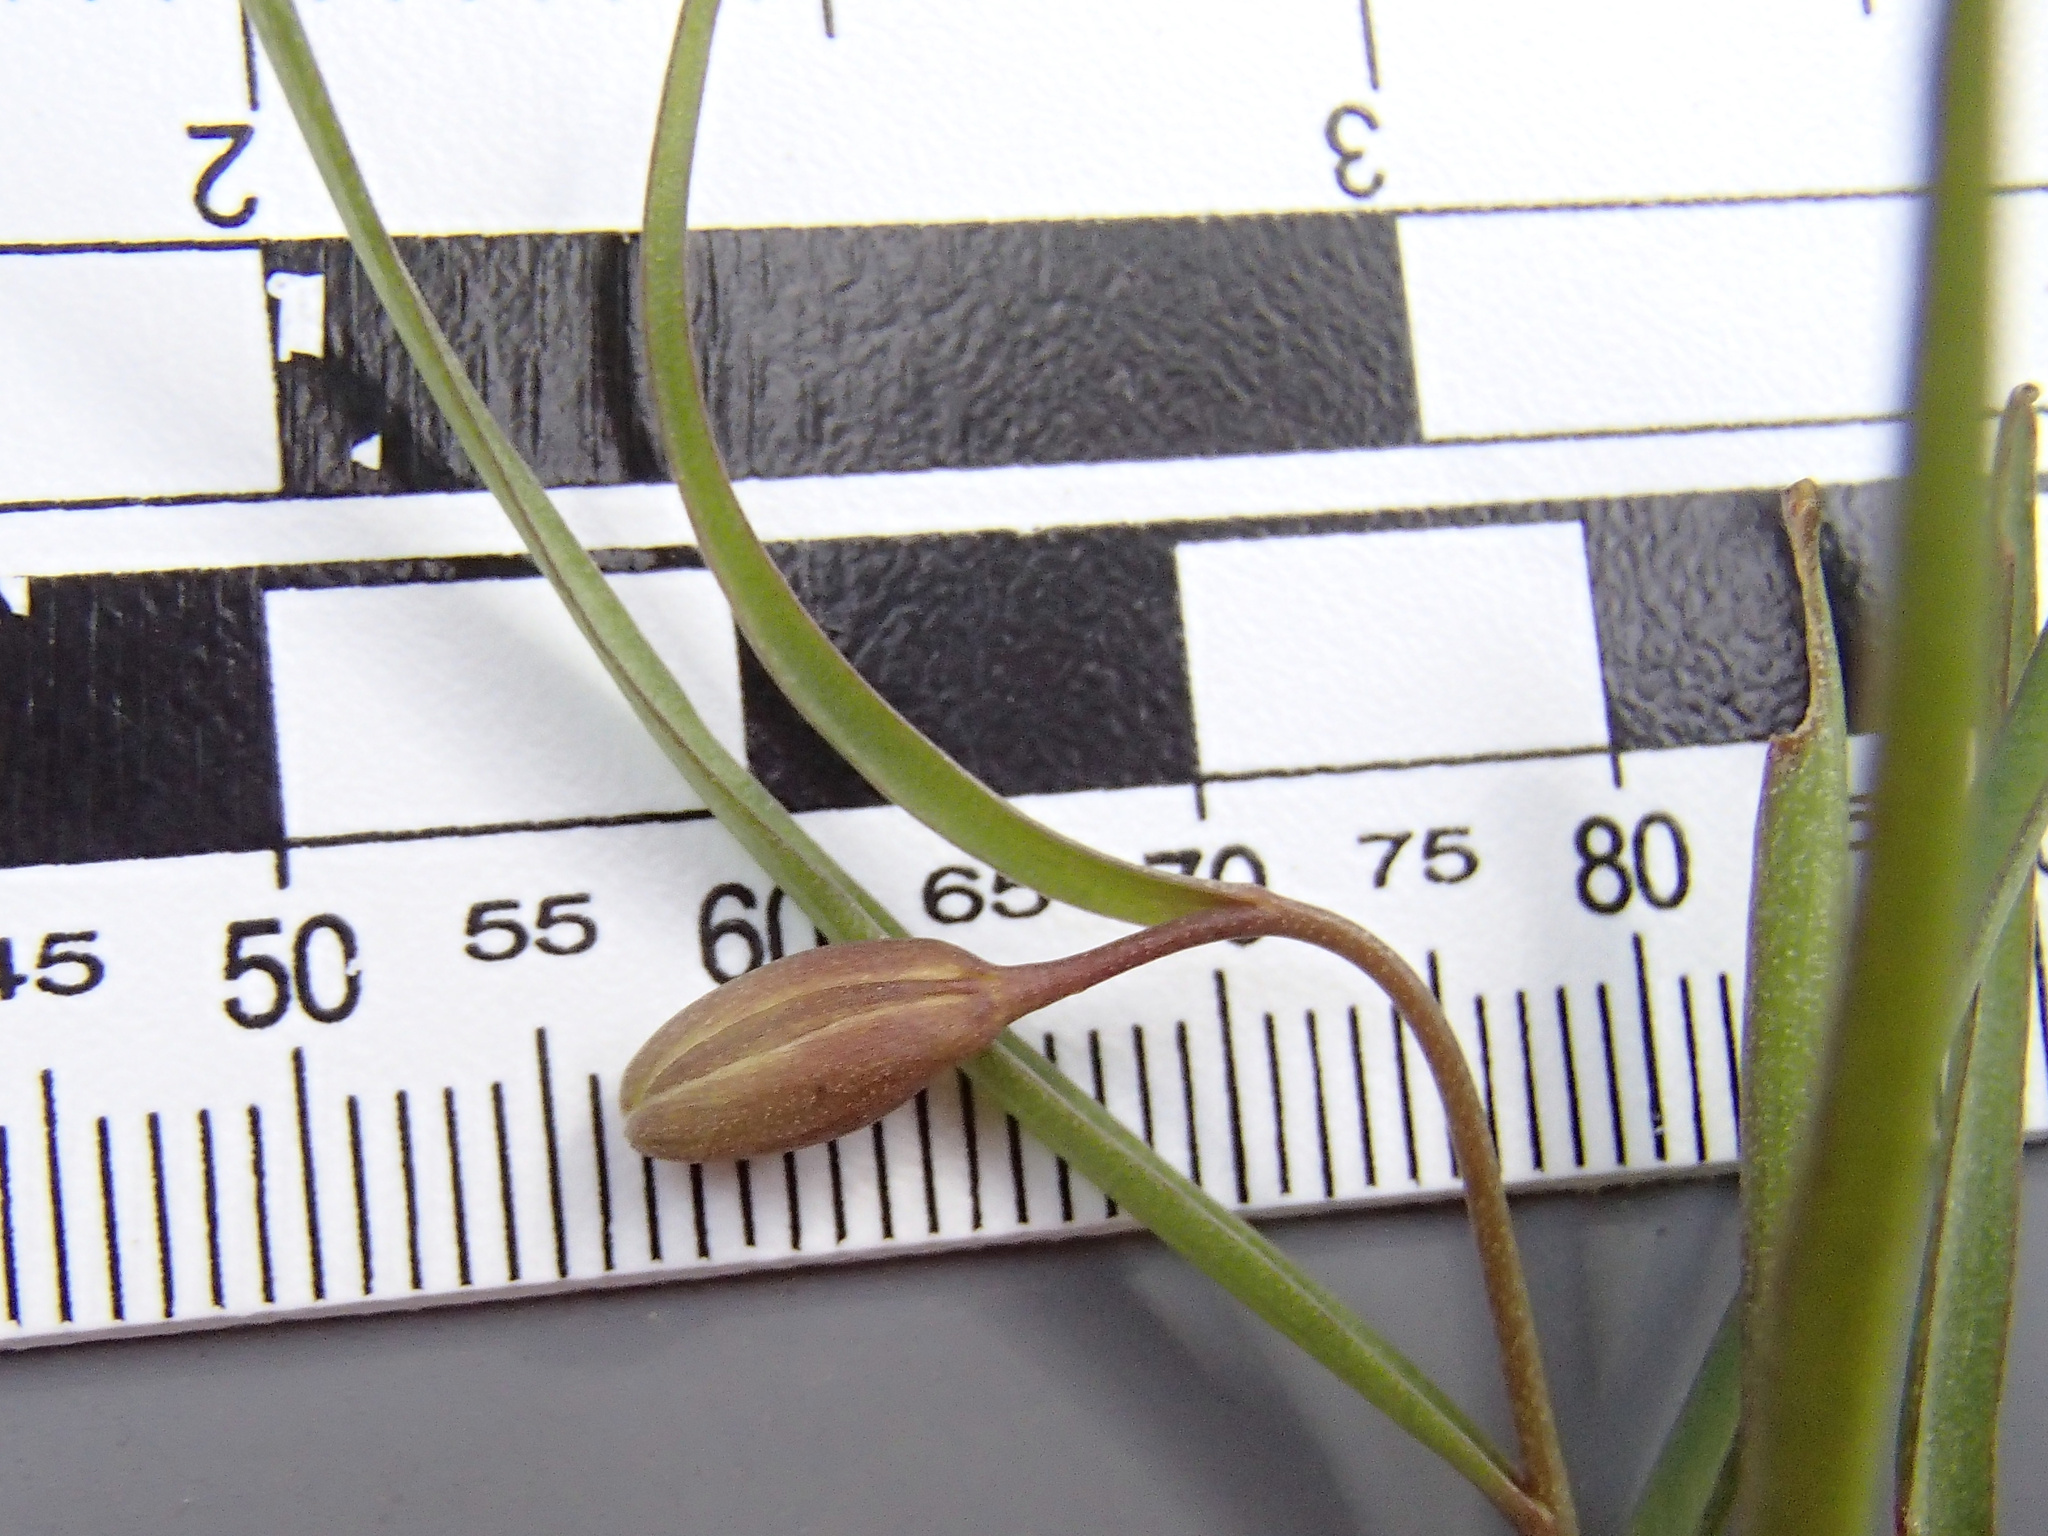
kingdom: Plantae
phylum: Tracheophyta
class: Liliopsida
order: Liliales
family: Liliaceae
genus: Fritillaria
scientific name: Fritillaria pudica
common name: Yellow fritillary
